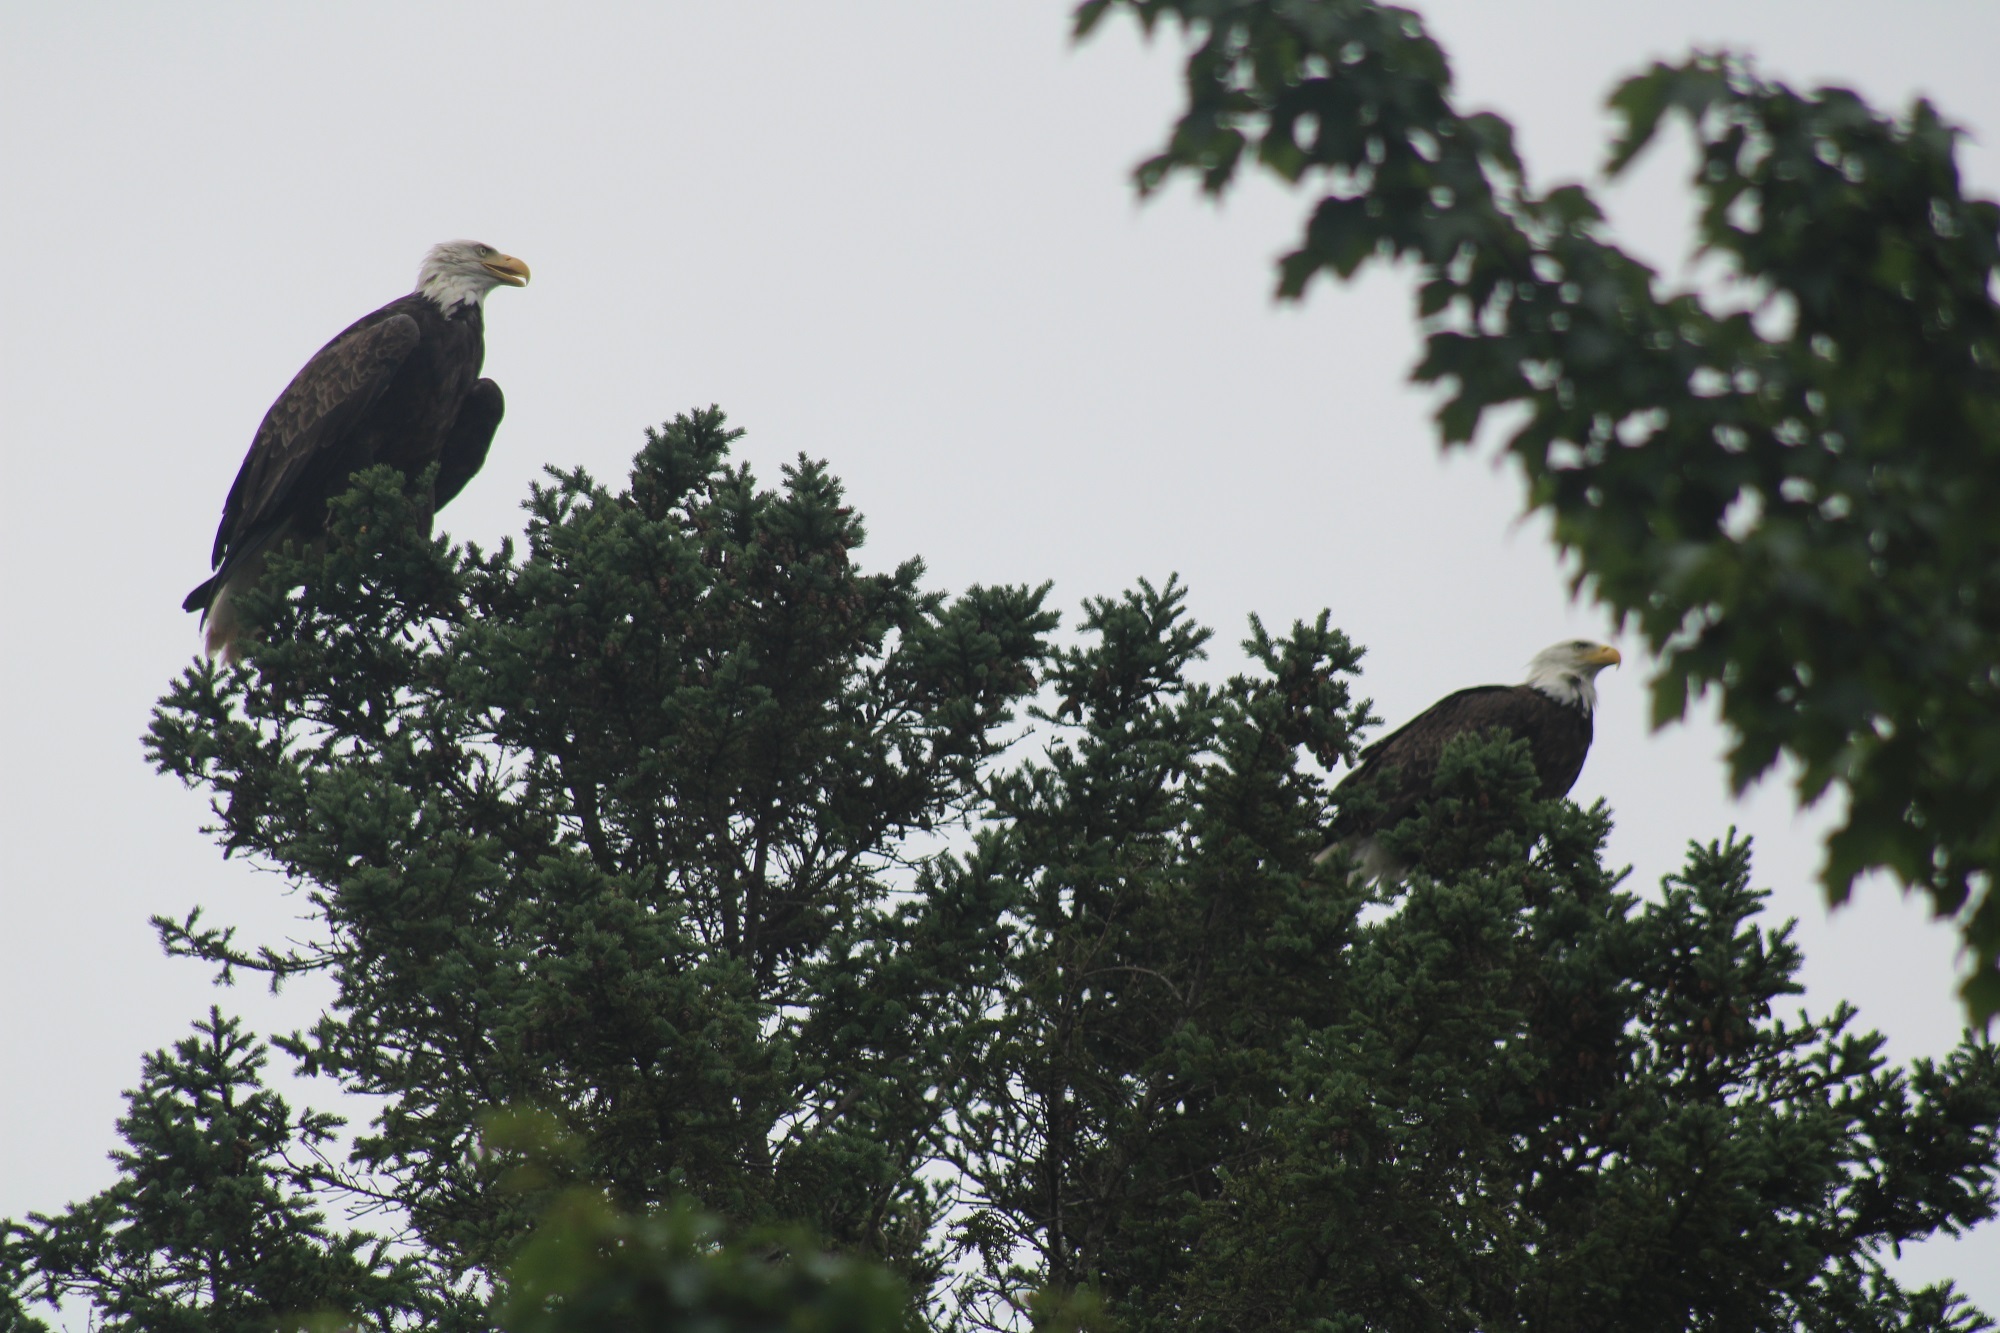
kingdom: Animalia
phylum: Chordata
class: Aves
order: Accipitriformes
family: Accipitridae
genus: Haliaeetus
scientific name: Haliaeetus leucocephalus
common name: Bald eagle
